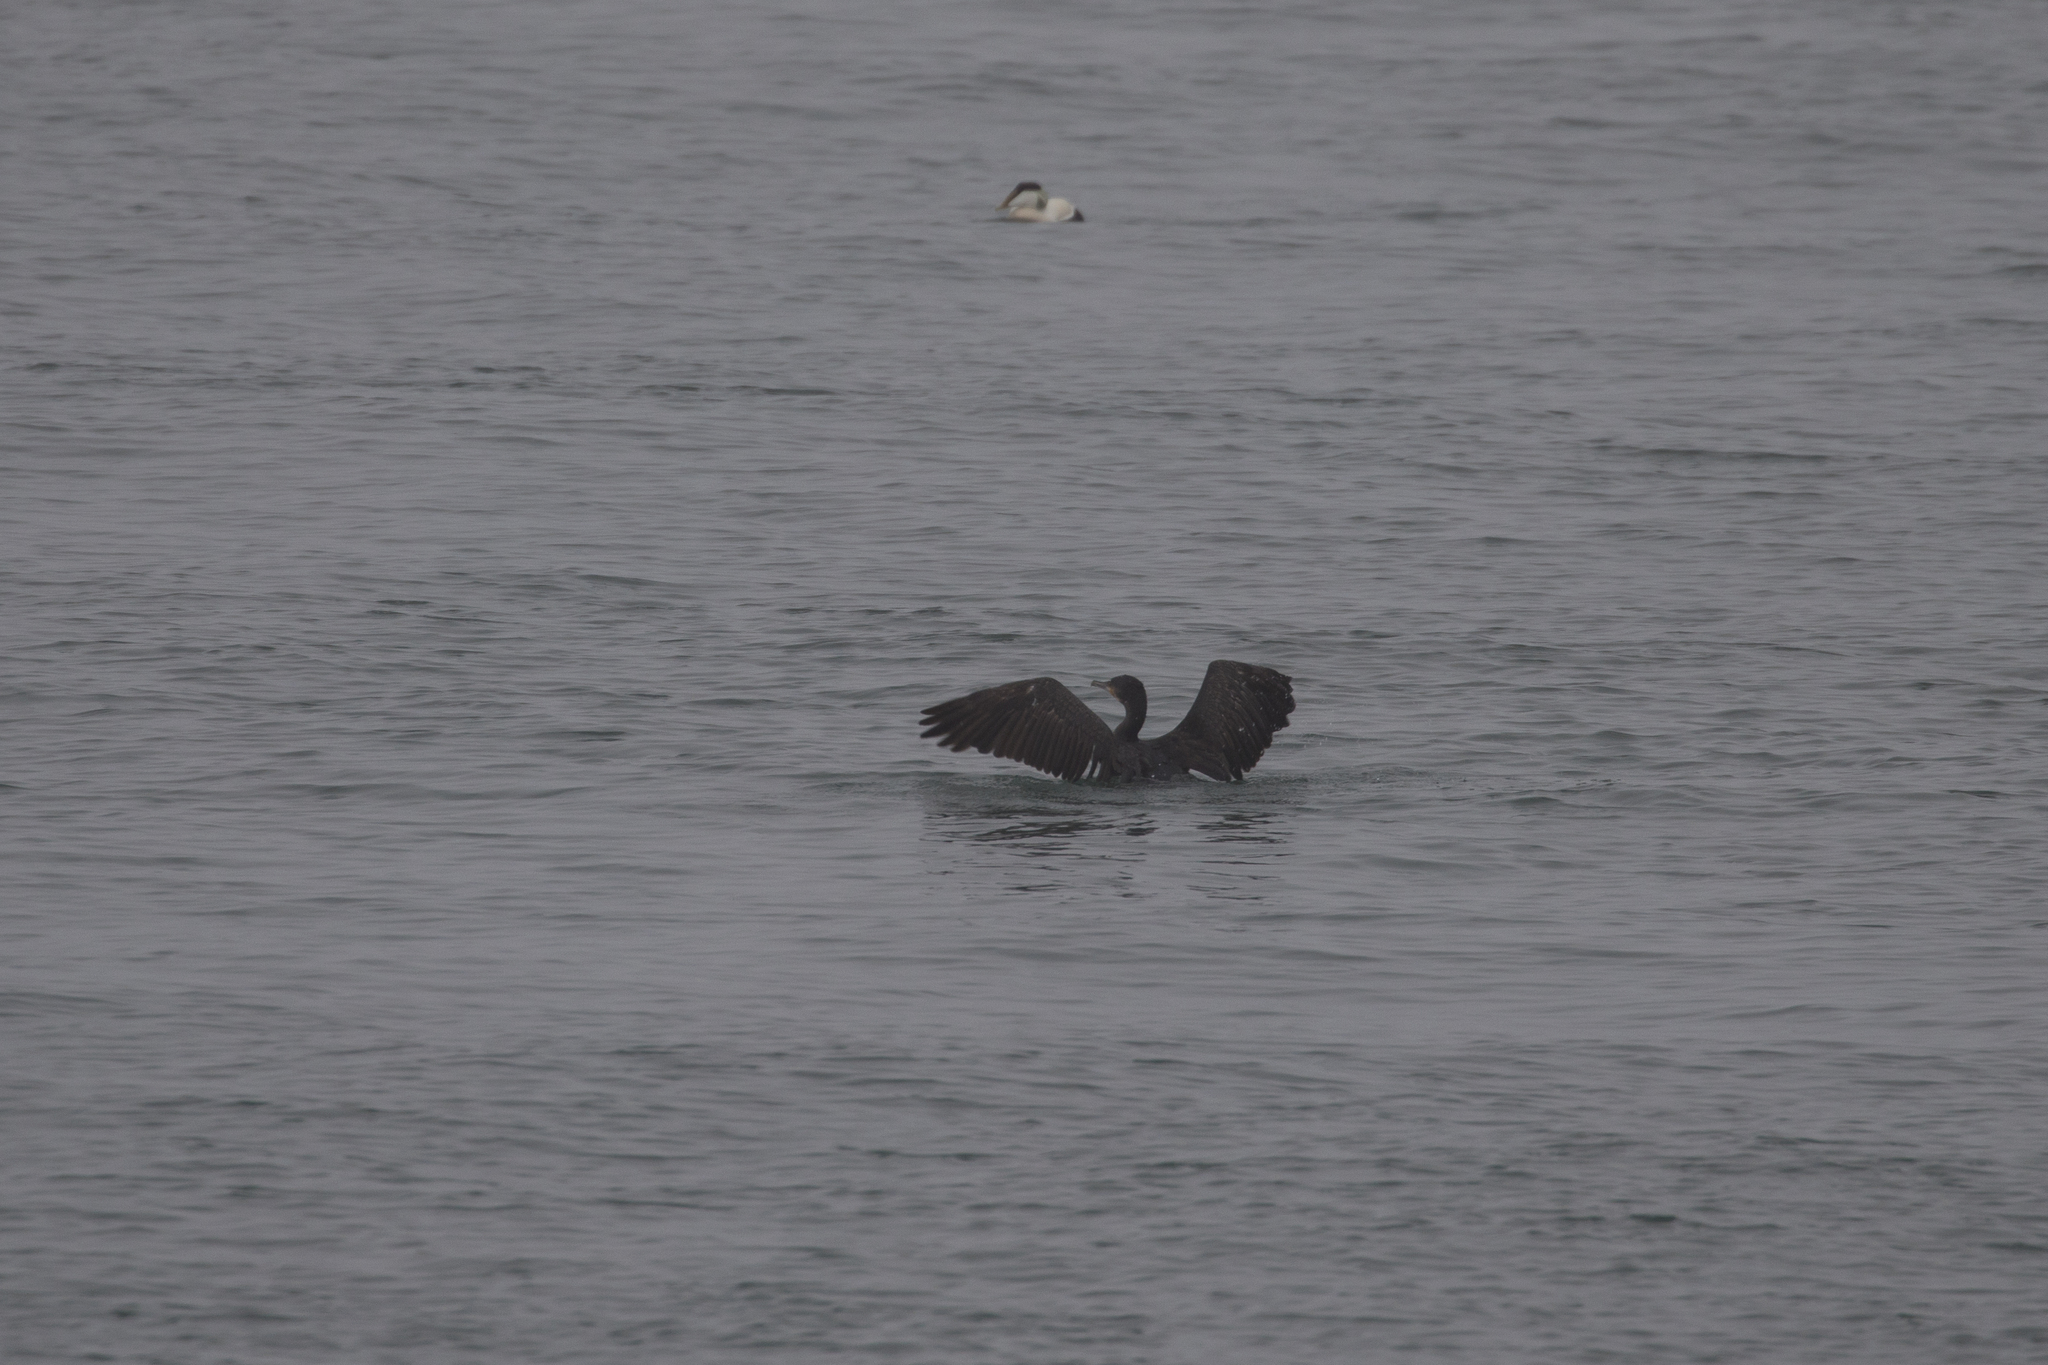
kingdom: Animalia
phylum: Chordata
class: Aves
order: Suliformes
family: Phalacrocoracidae
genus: Phalacrocorax
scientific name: Phalacrocorax carbo
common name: Great cormorant
